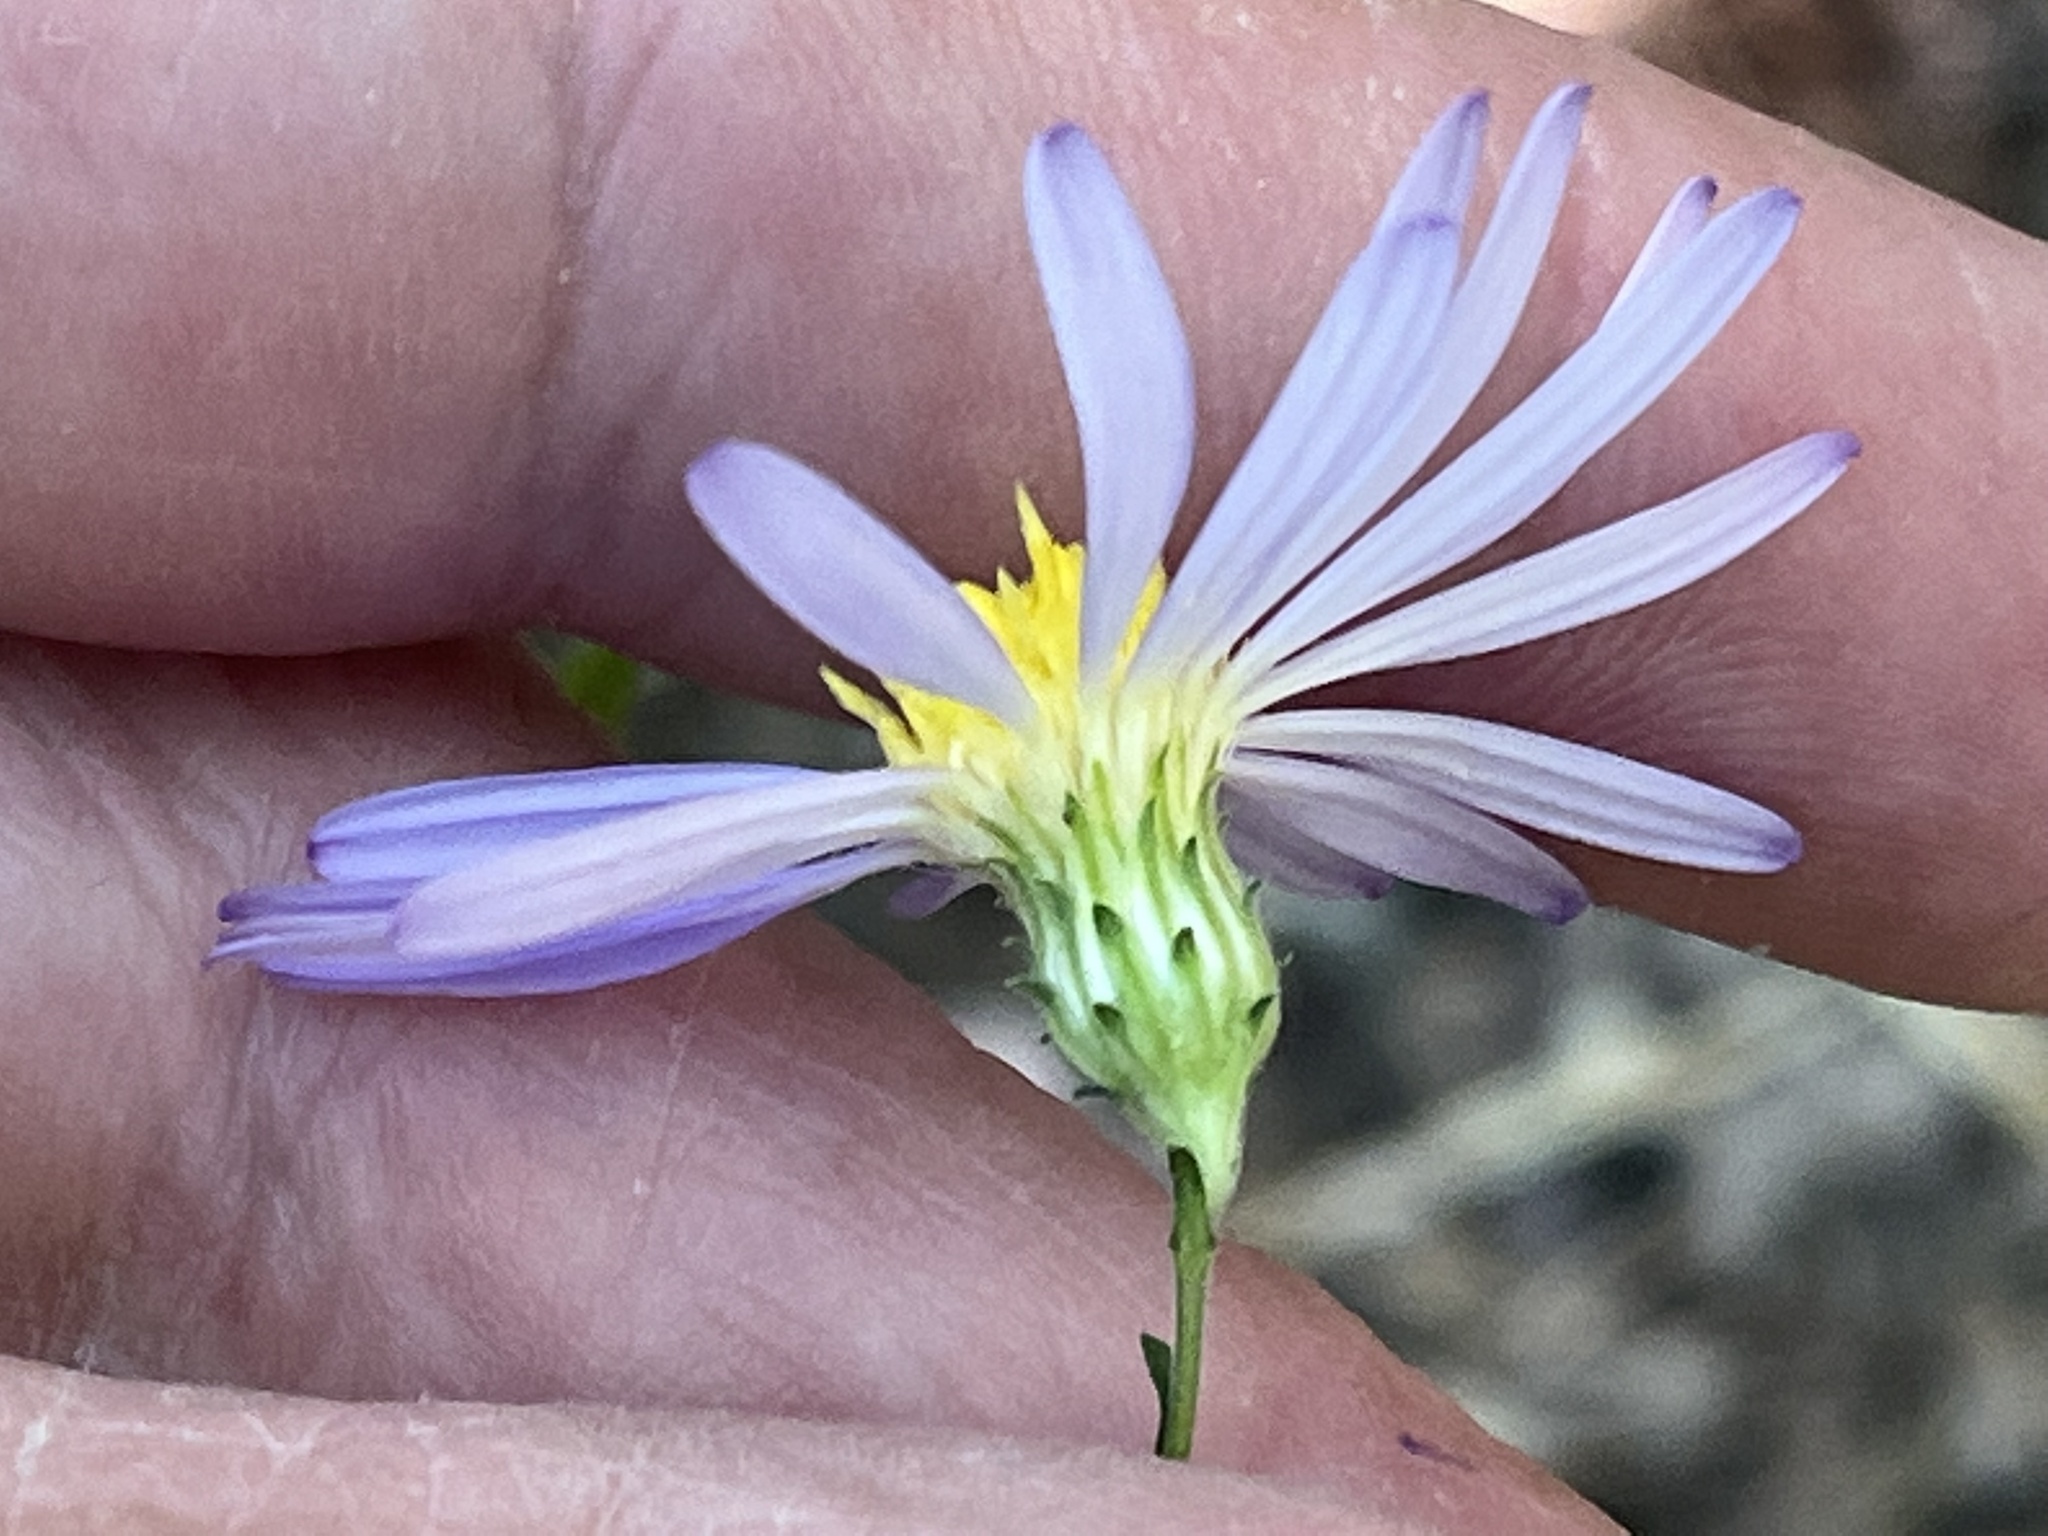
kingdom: Plantae
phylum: Tracheophyta
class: Magnoliopsida
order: Asterales
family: Asteraceae
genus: Symphyotrichum
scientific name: Symphyotrichum patens
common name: Late purple aster
